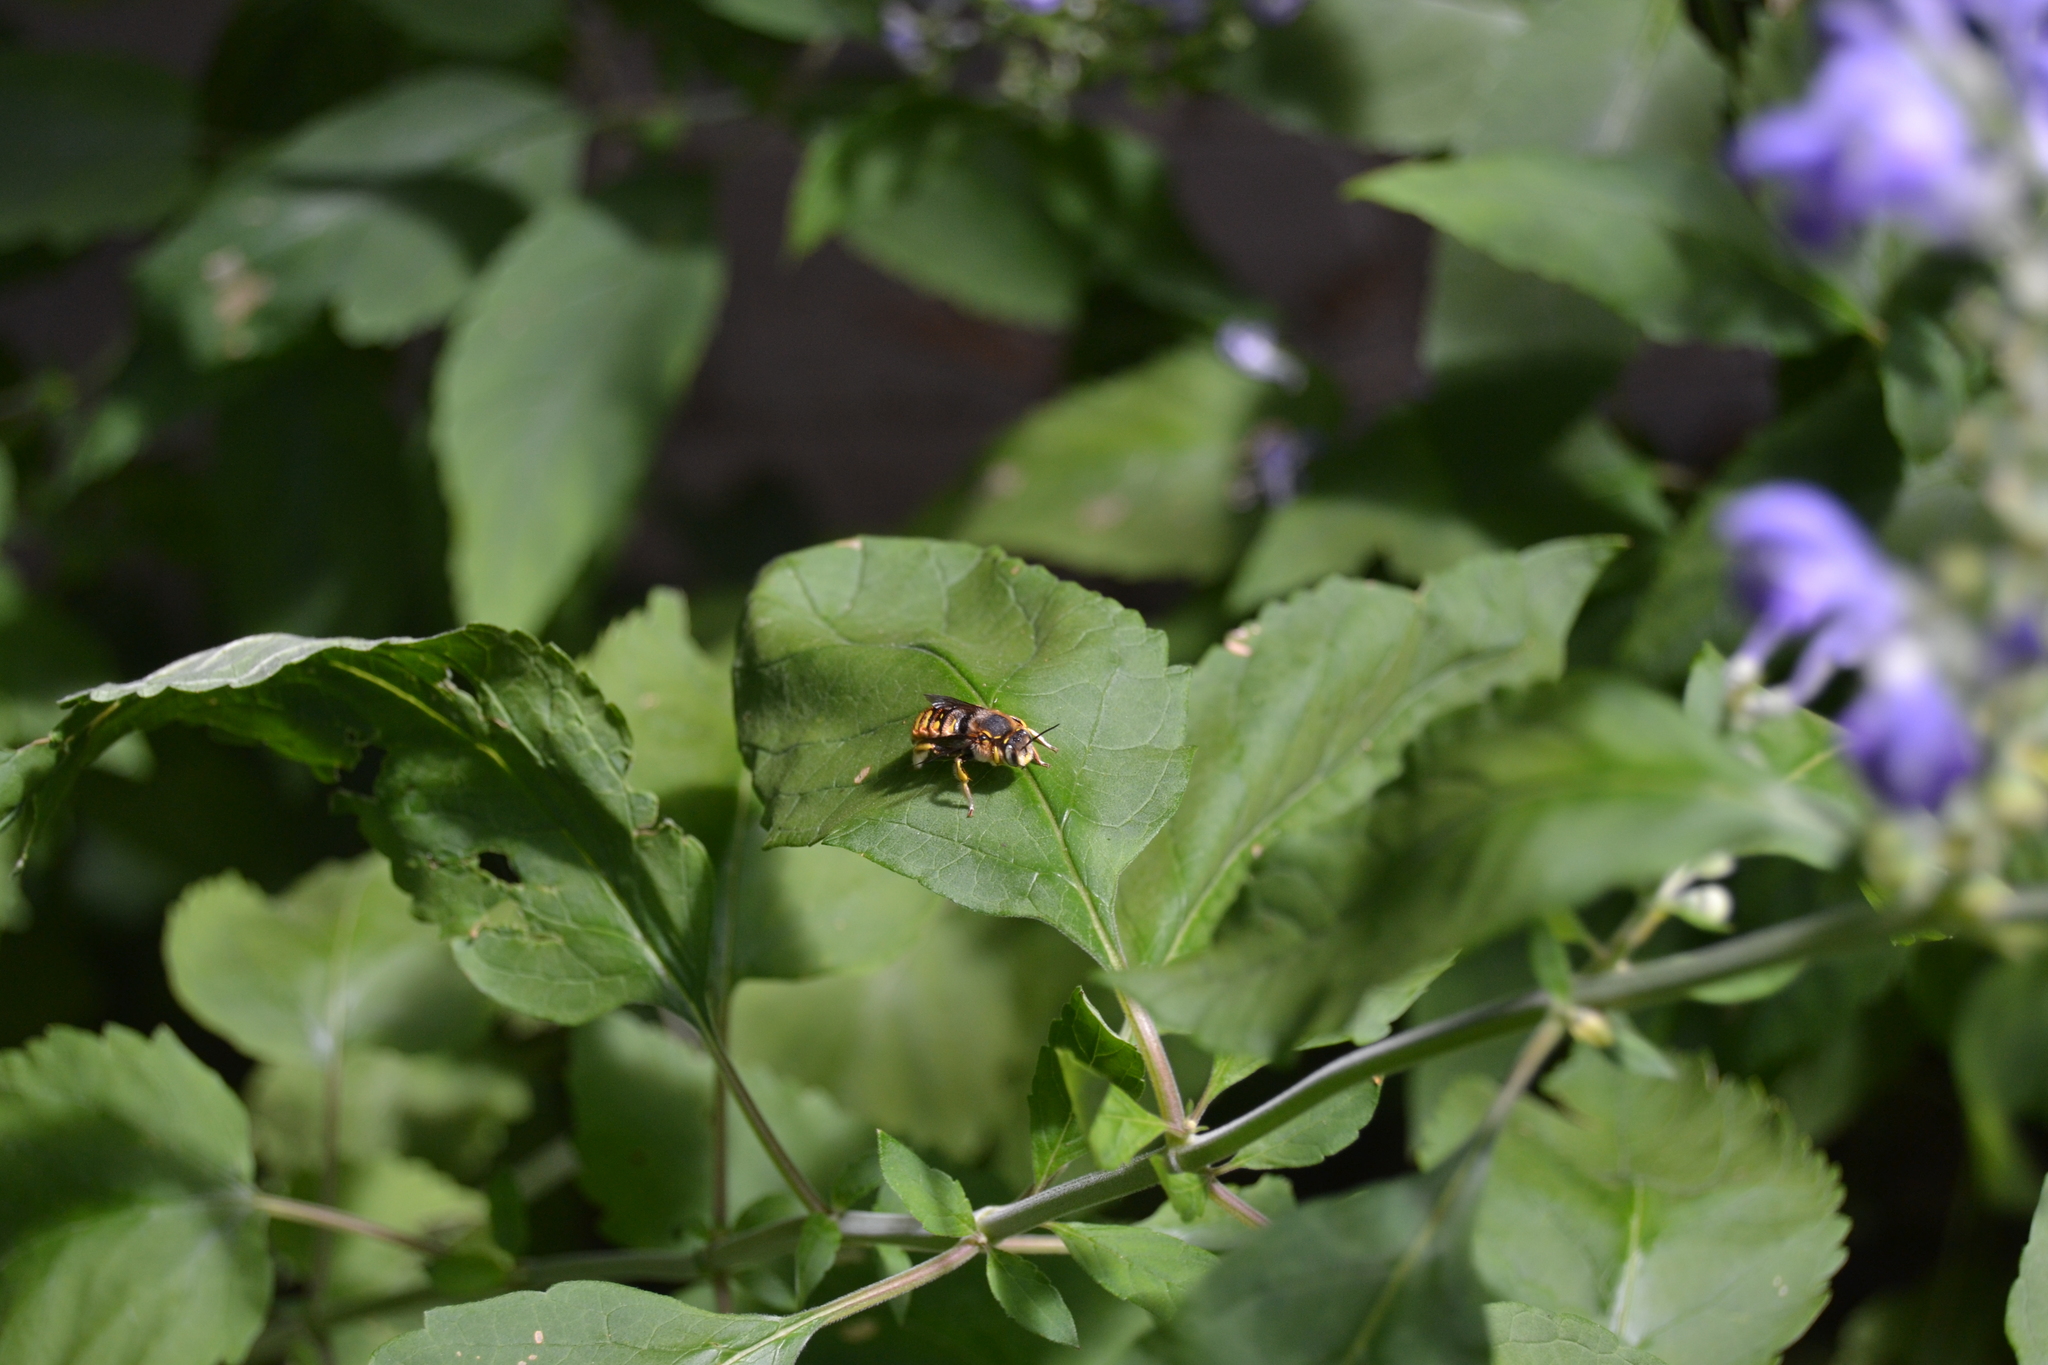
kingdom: Animalia
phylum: Arthropoda
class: Insecta
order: Hymenoptera
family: Megachilidae
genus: Anthidium
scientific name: Anthidium manicatum
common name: Wool carder bee
